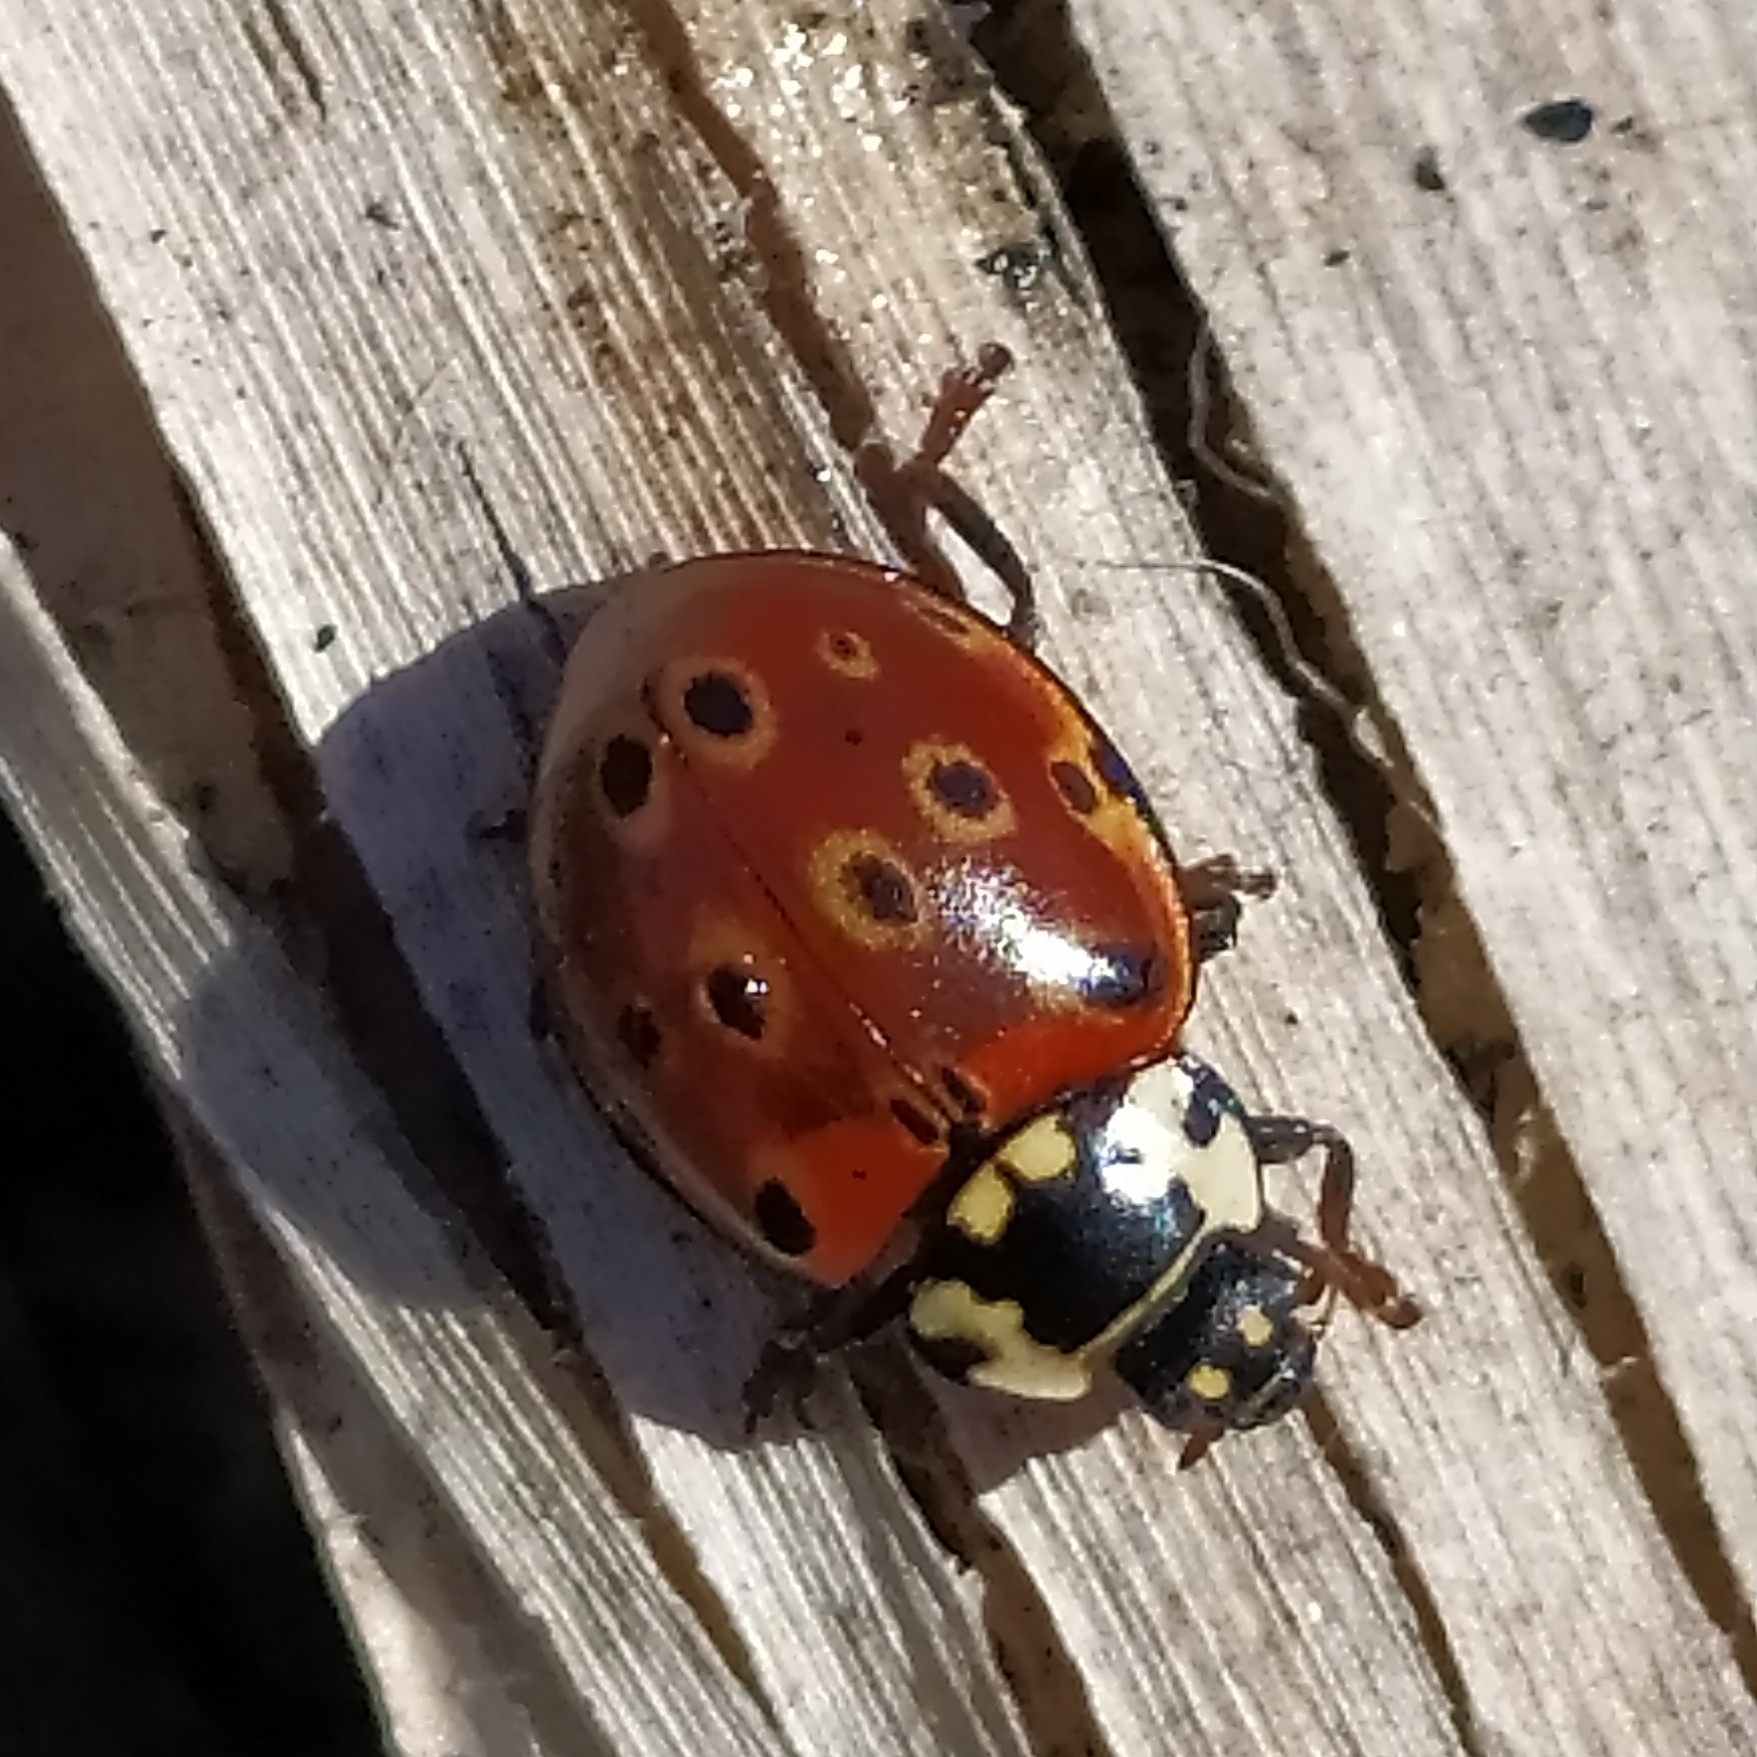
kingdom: Animalia
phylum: Arthropoda
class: Insecta
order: Coleoptera
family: Coccinellidae
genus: Anatis
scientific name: Anatis ocellata
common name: Eyed ladybird
